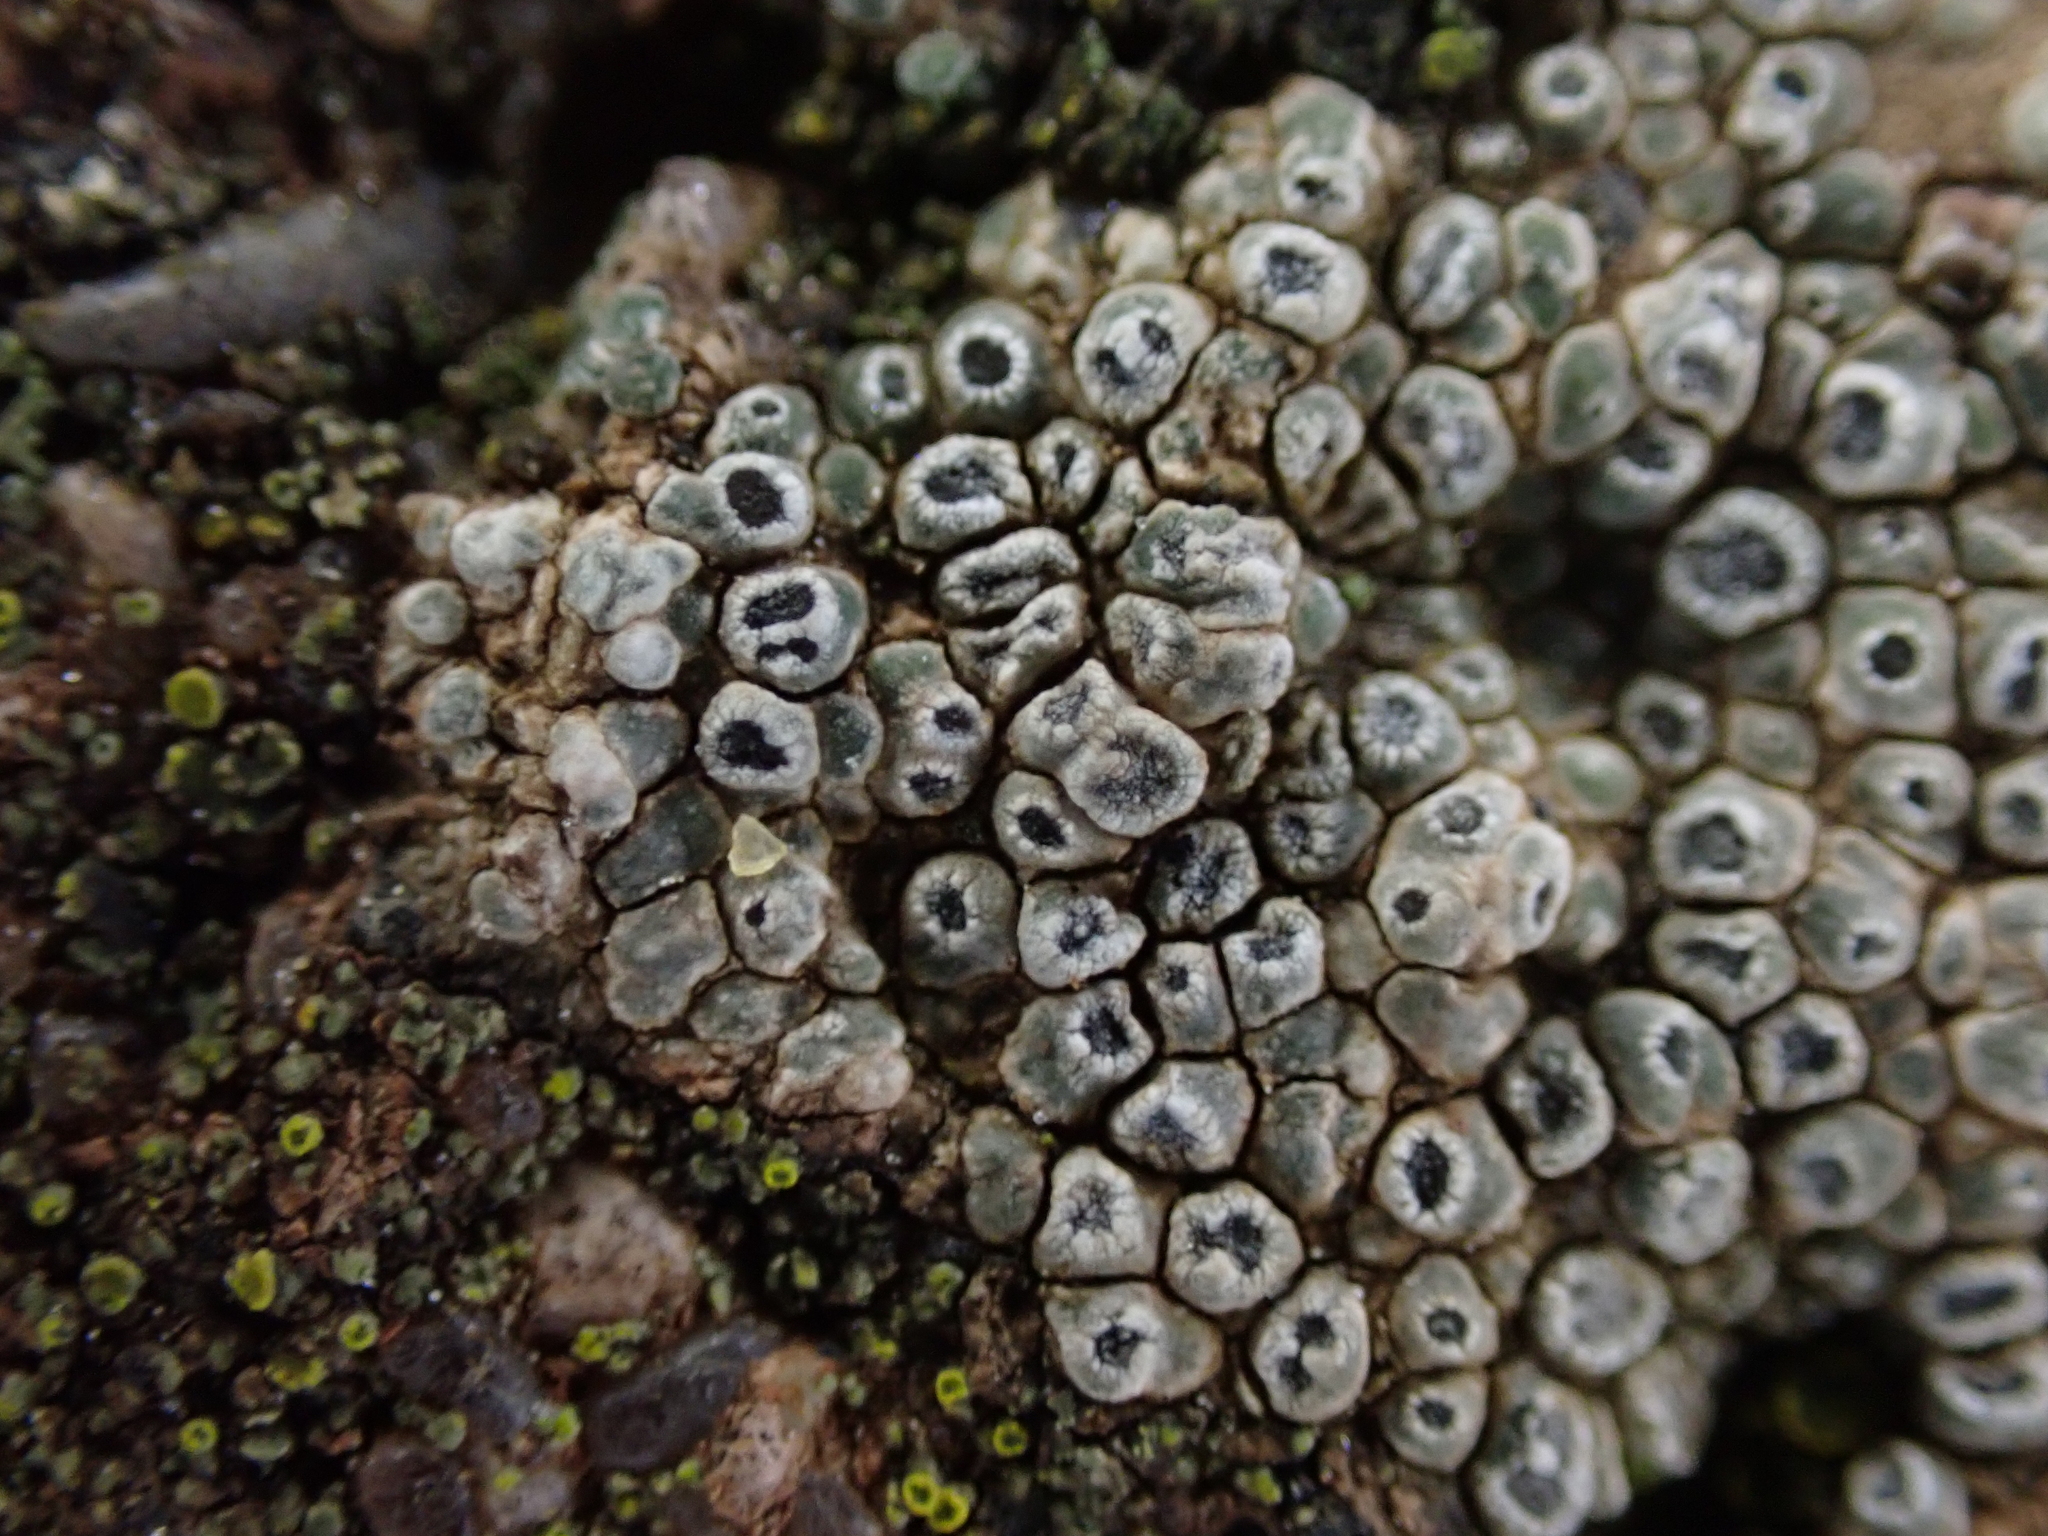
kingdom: Fungi
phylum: Ascomycota
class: Lecanoromycetes
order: Pertusariales
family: Megasporaceae
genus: Circinaria
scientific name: Circinaria contorta
